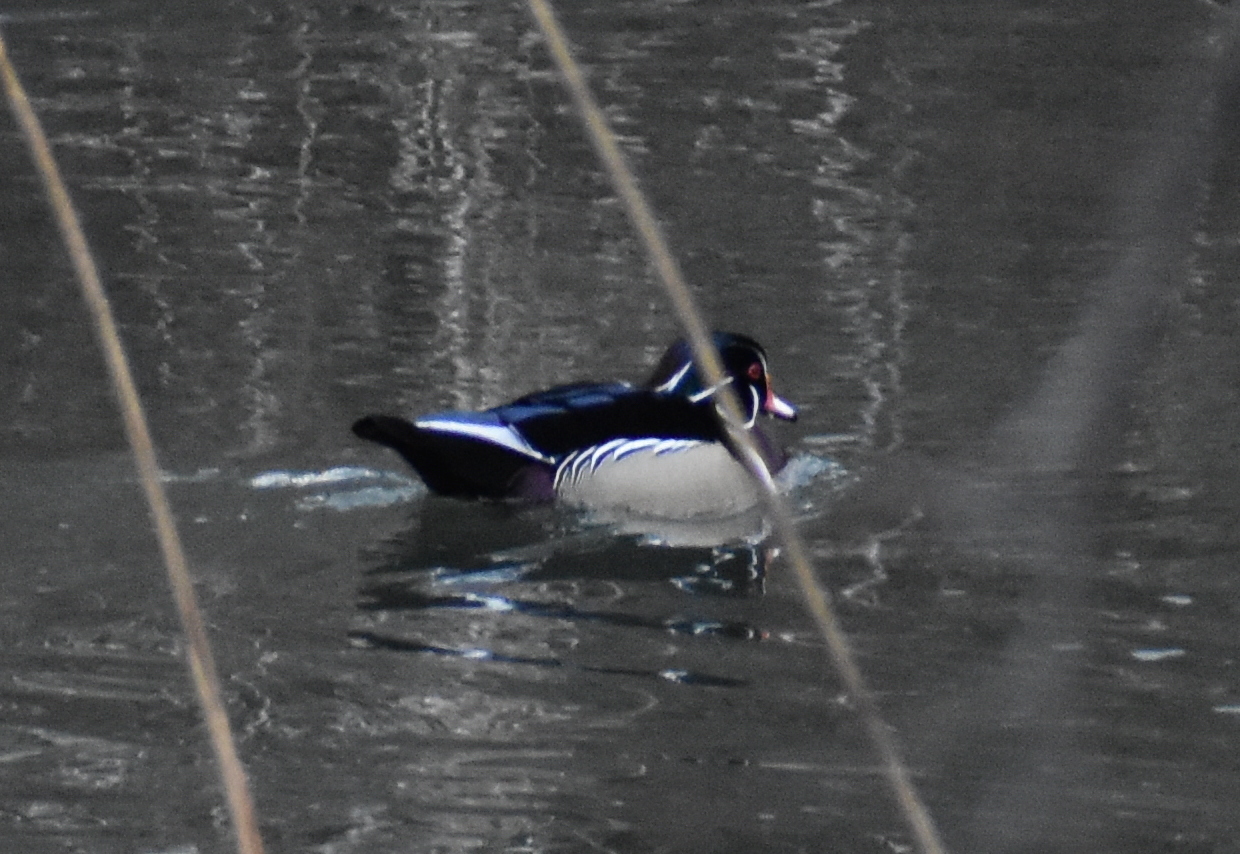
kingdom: Animalia
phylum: Chordata
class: Aves
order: Anseriformes
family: Anatidae
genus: Aix
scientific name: Aix sponsa
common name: Wood duck
